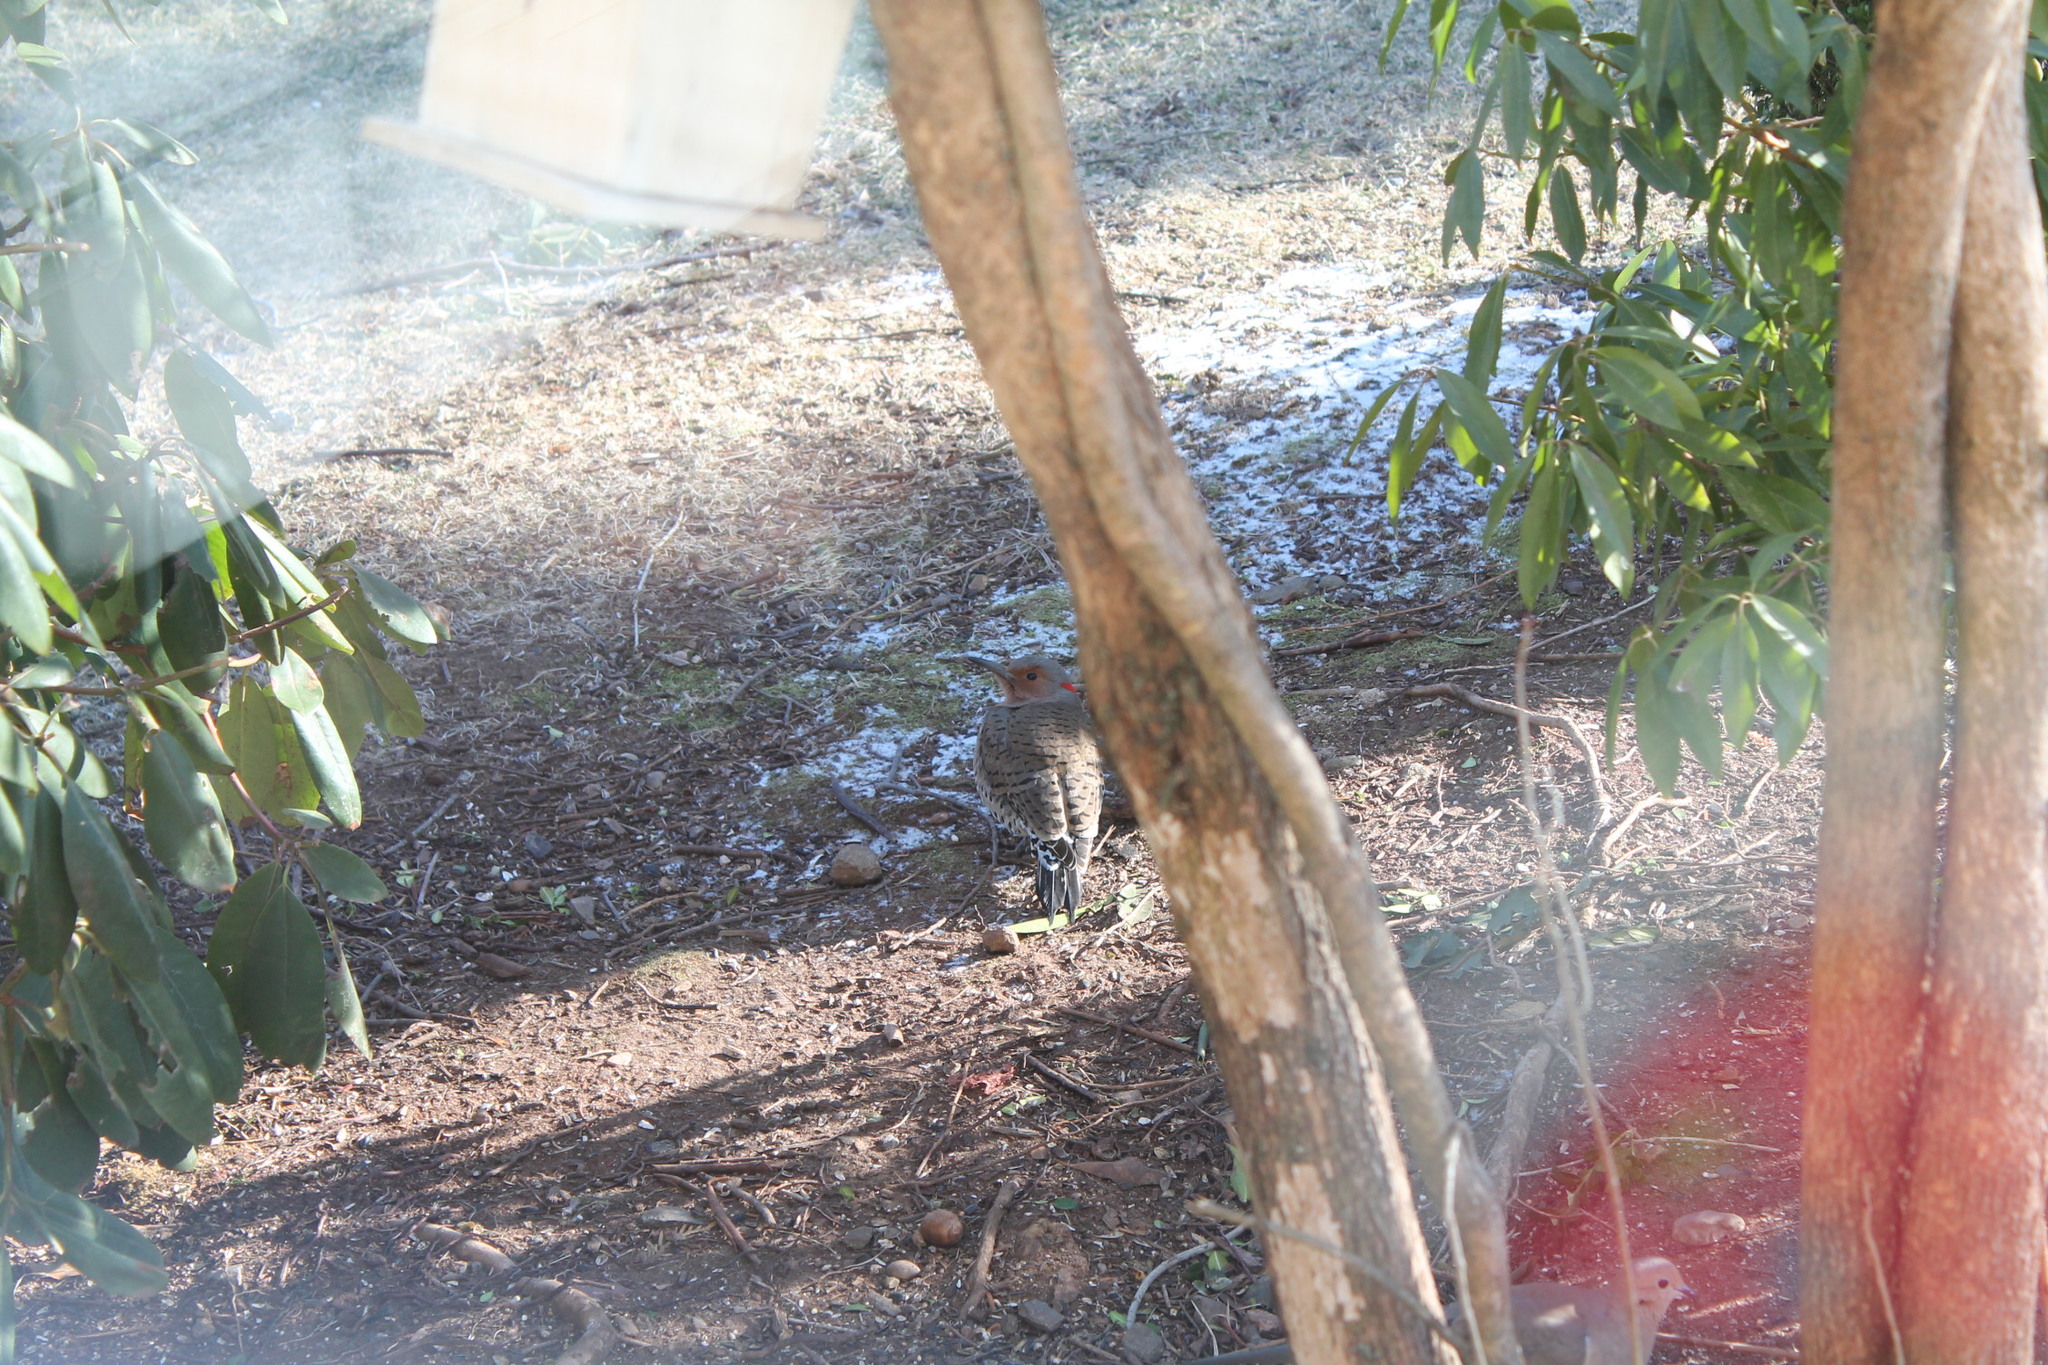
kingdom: Animalia
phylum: Chordata
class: Aves
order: Piciformes
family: Picidae
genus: Colaptes
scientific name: Colaptes auratus
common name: Northern flicker
